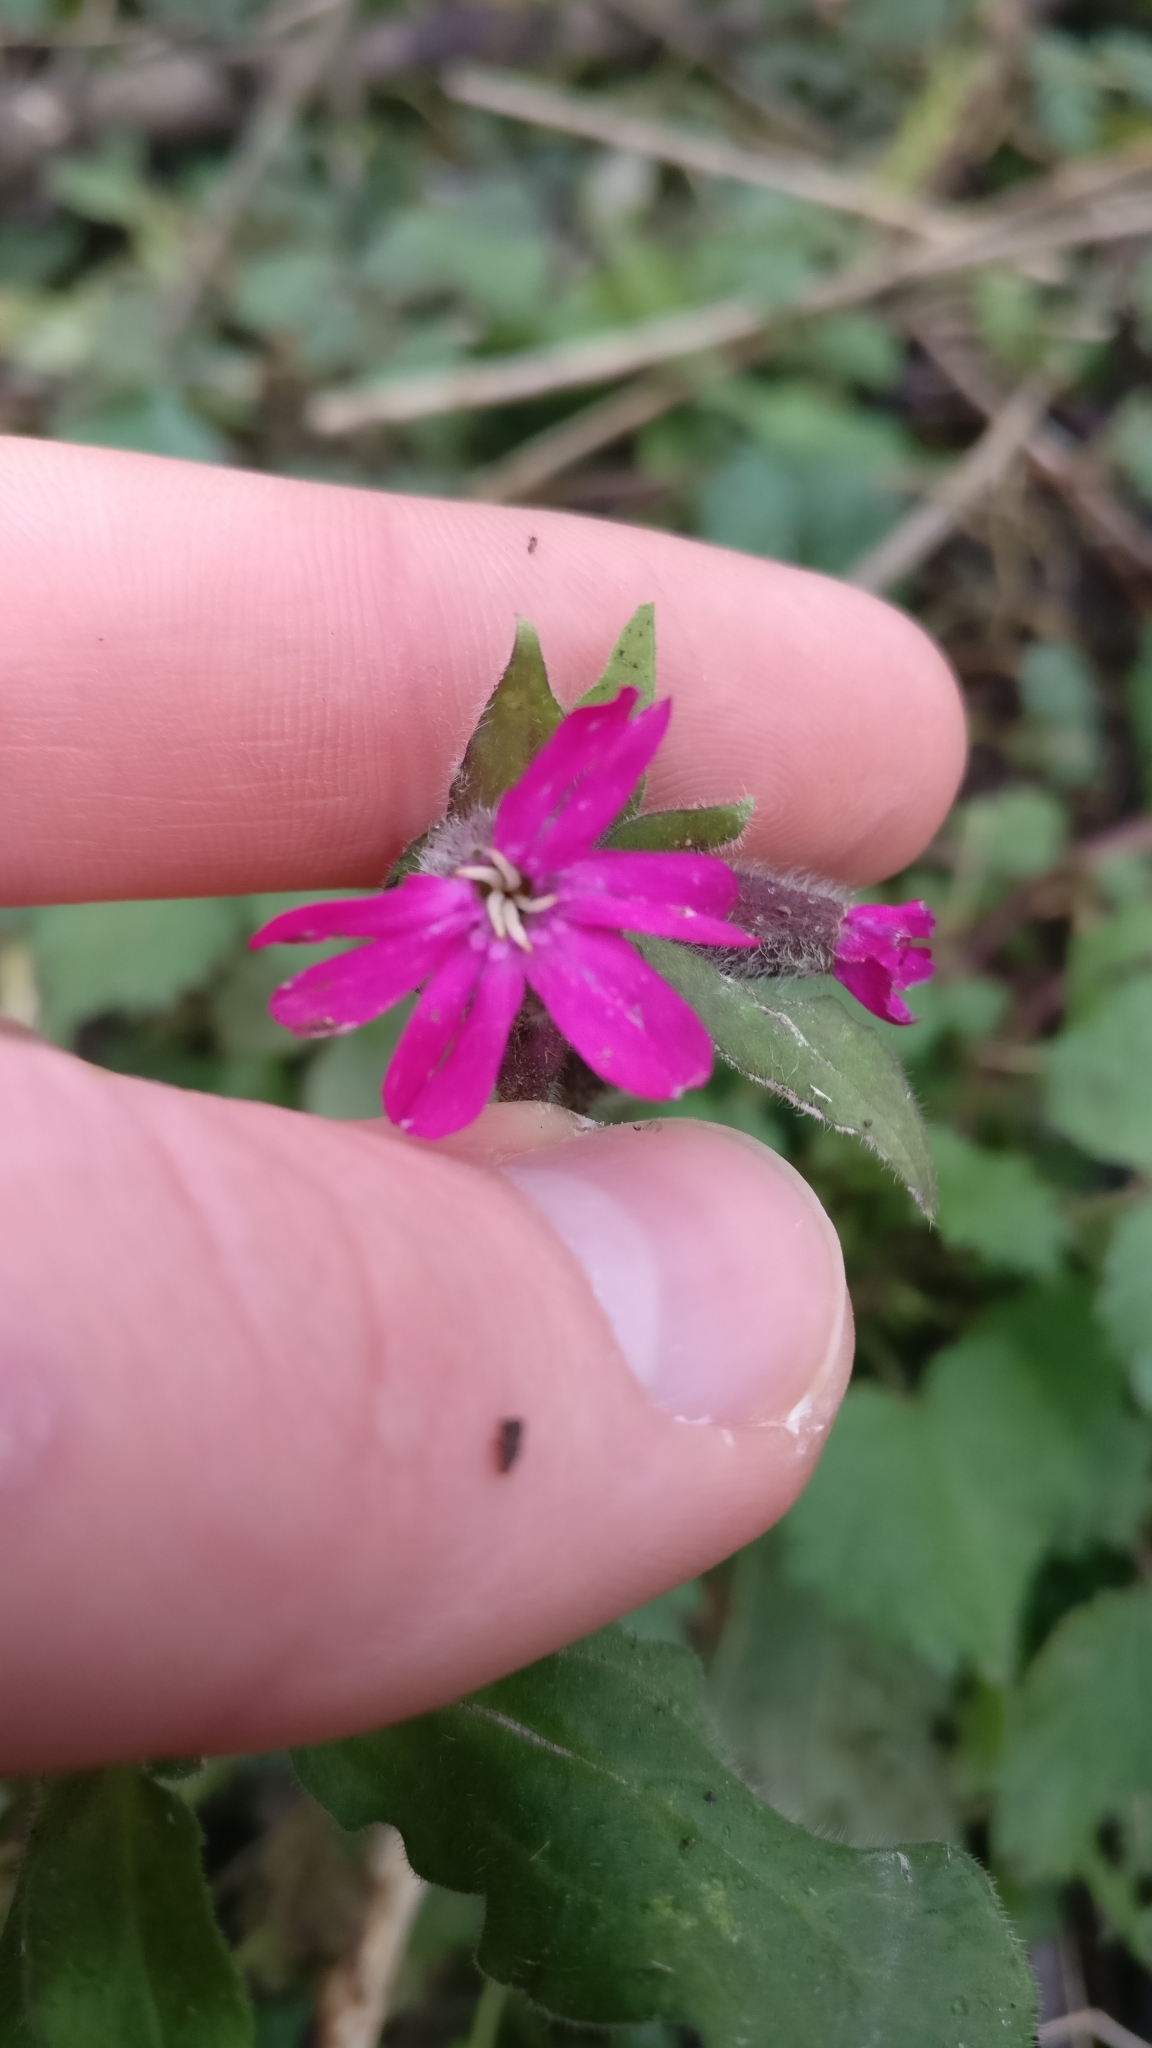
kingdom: Plantae
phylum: Tracheophyta
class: Magnoliopsida
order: Caryophyllales
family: Caryophyllaceae
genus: Silene
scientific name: Silene dioica
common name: Red campion
